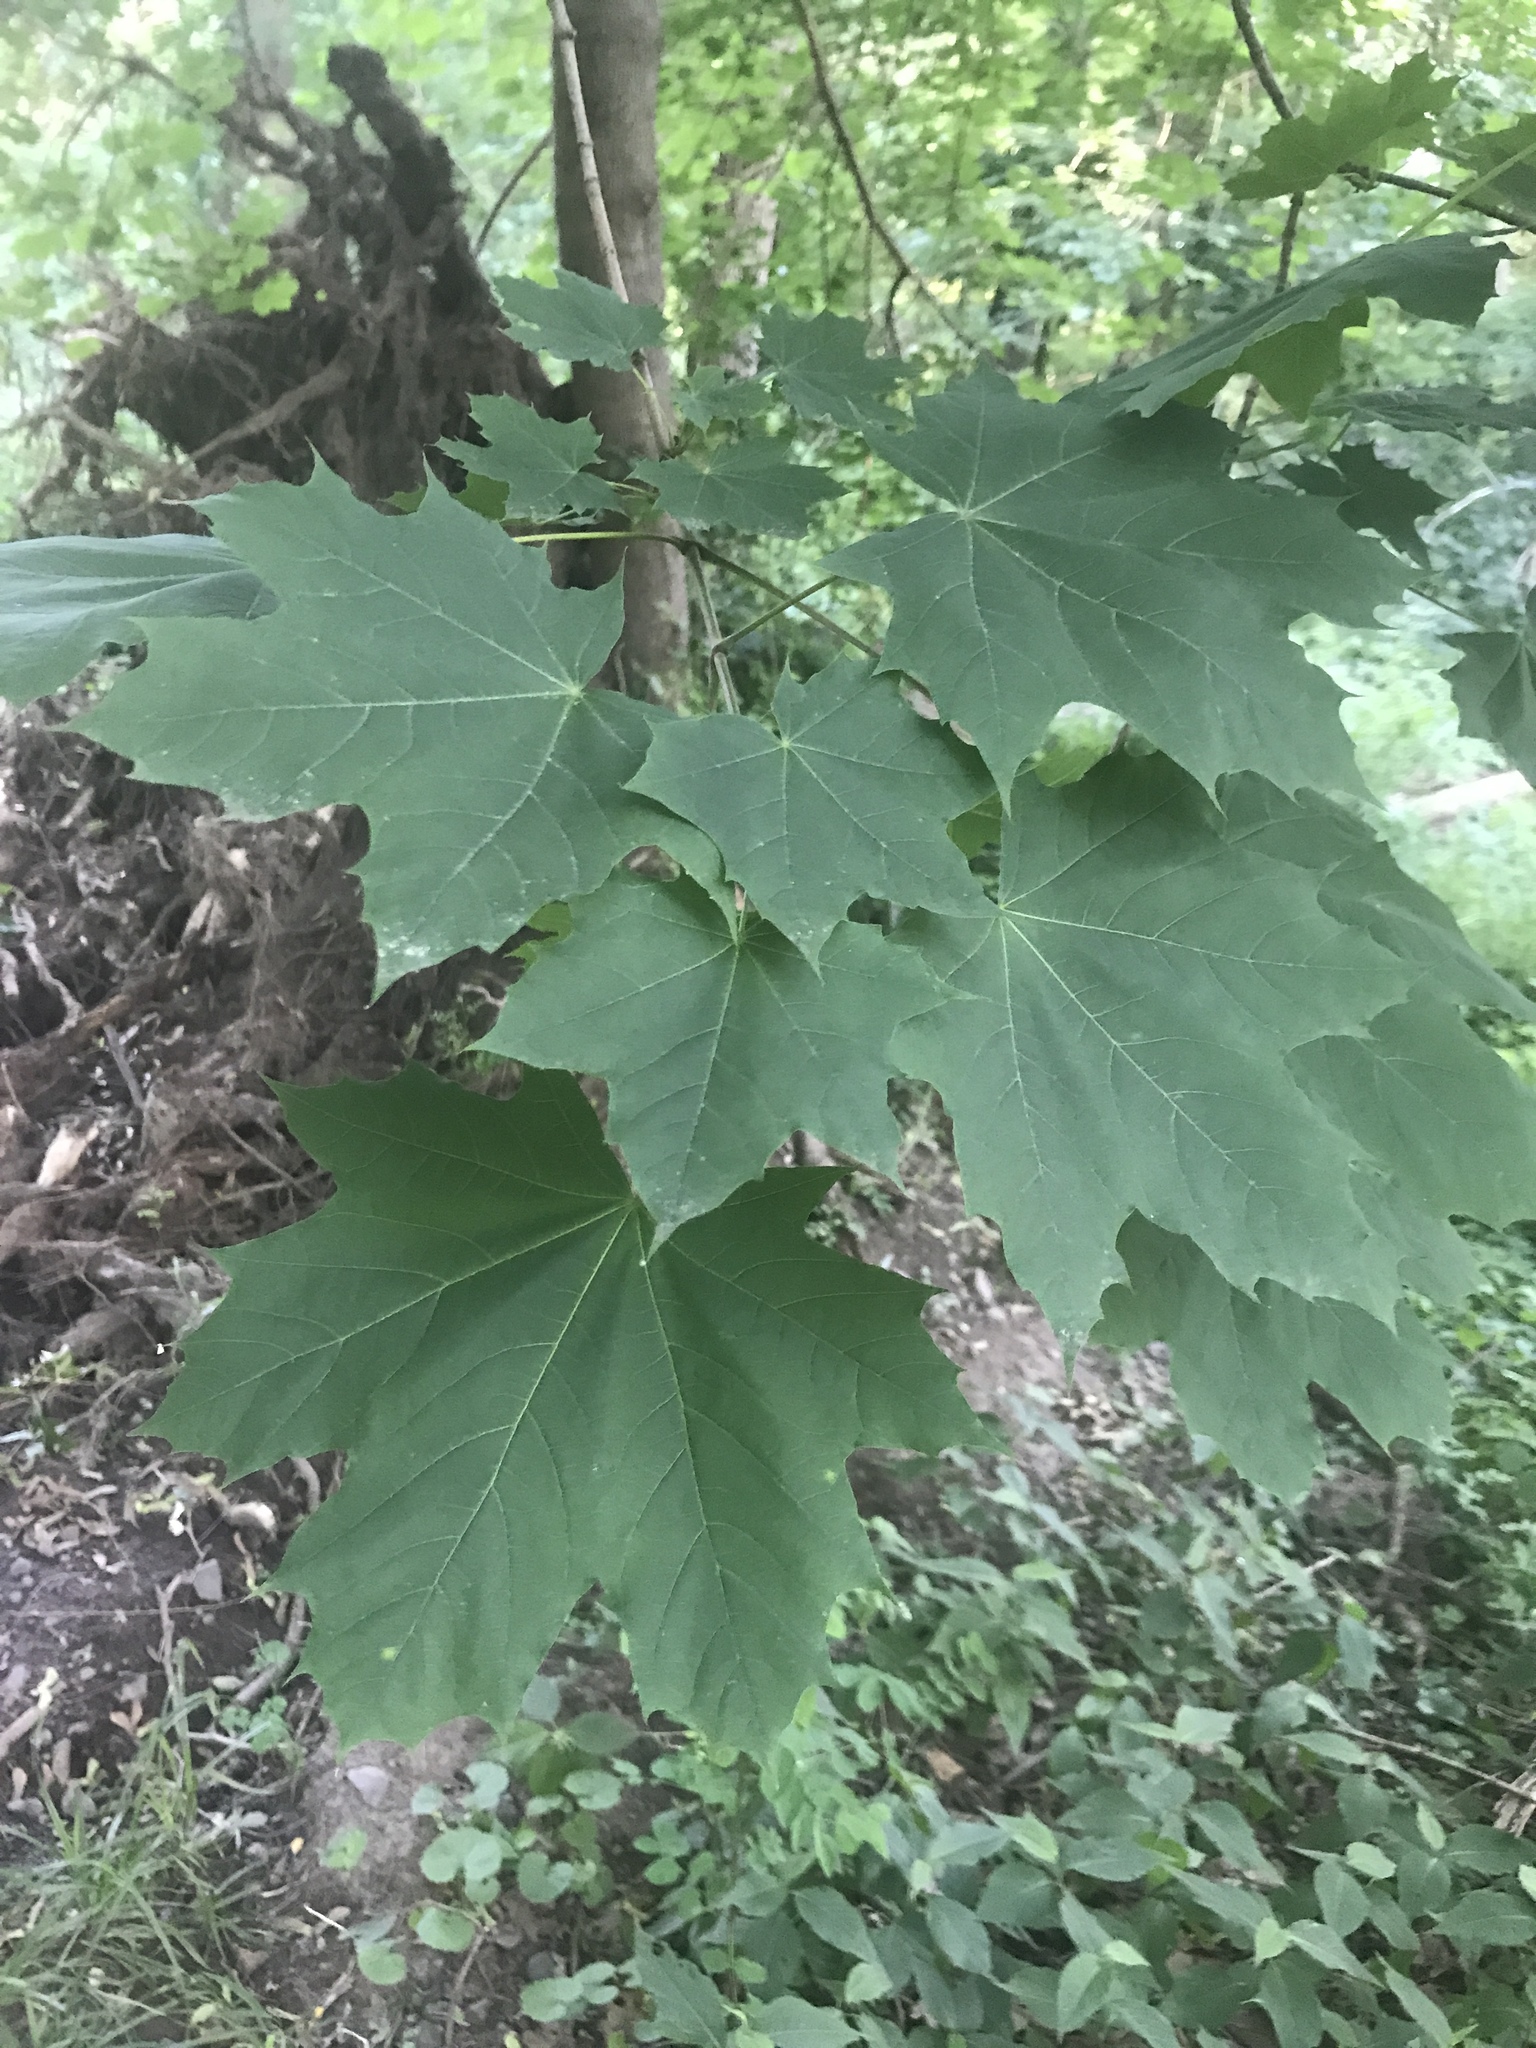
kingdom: Plantae
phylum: Tracheophyta
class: Magnoliopsida
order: Sapindales
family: Sapindaceae
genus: Acer
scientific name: Acer platanoides
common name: Norway maple
